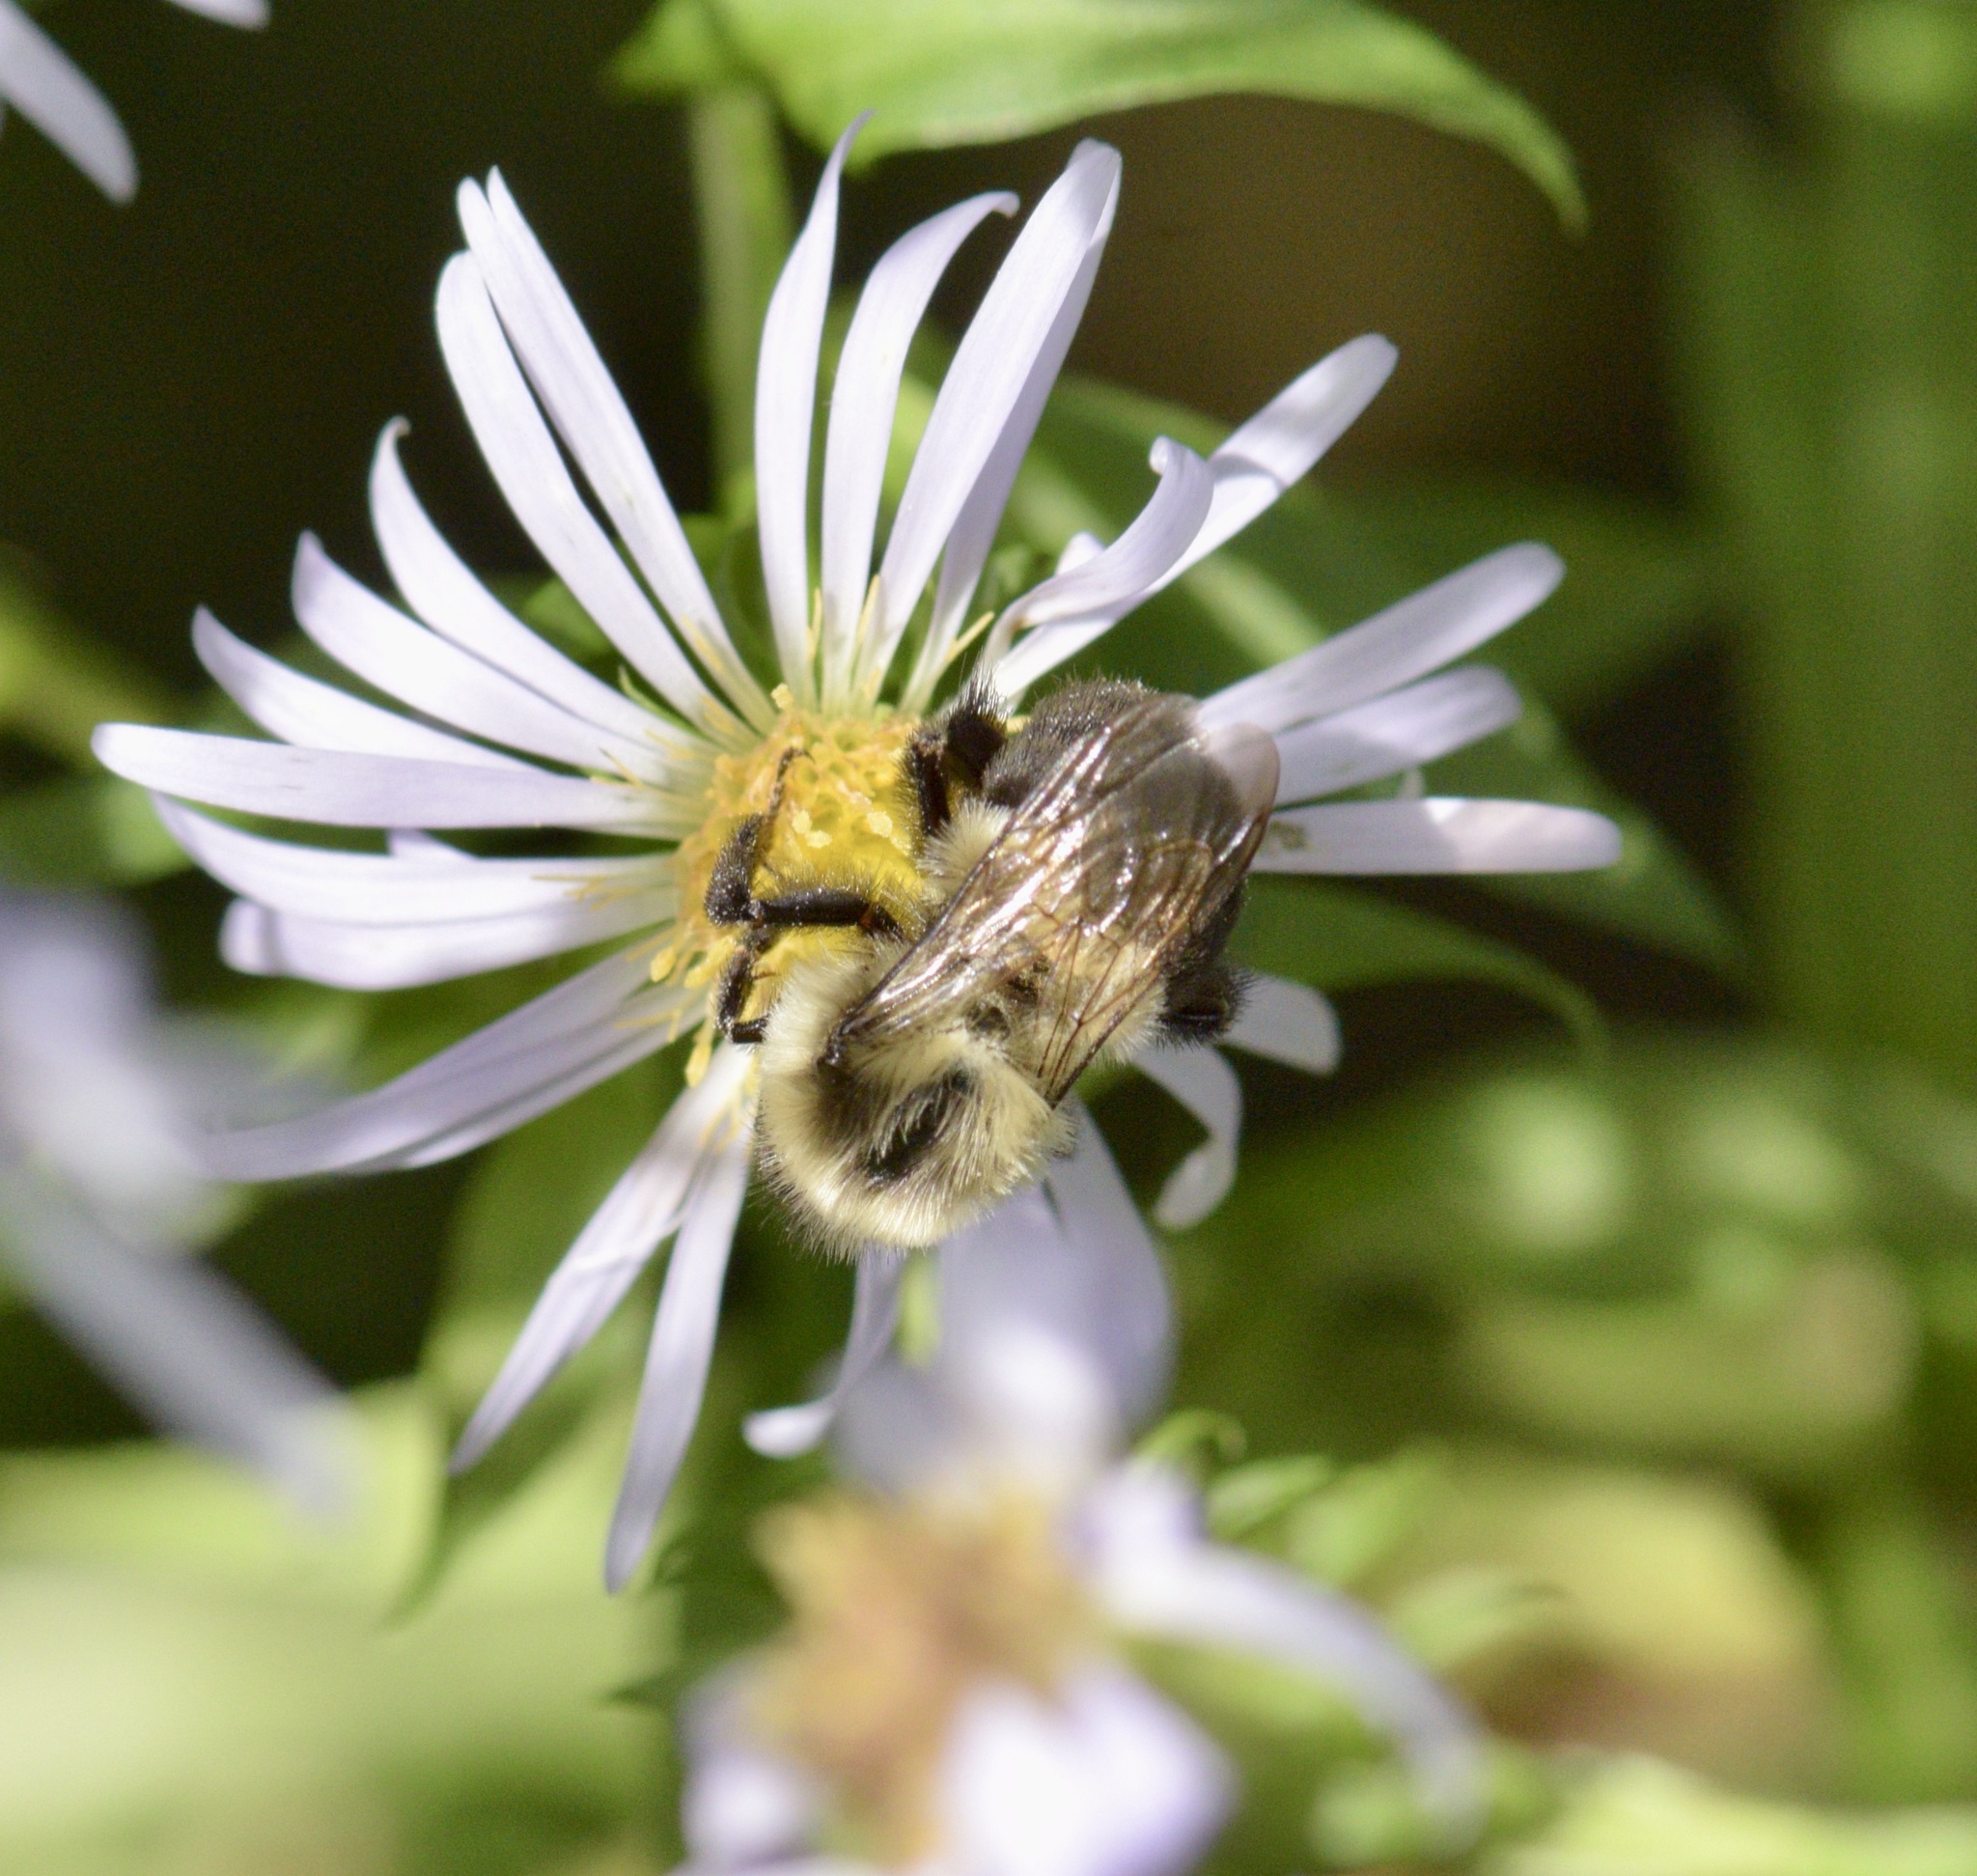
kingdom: Animalia
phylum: Arthropoda
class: Insecta
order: Hymenoptera
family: Apidae
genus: Bombus
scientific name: Bombus impatiens
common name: Common eastern bumble bee
